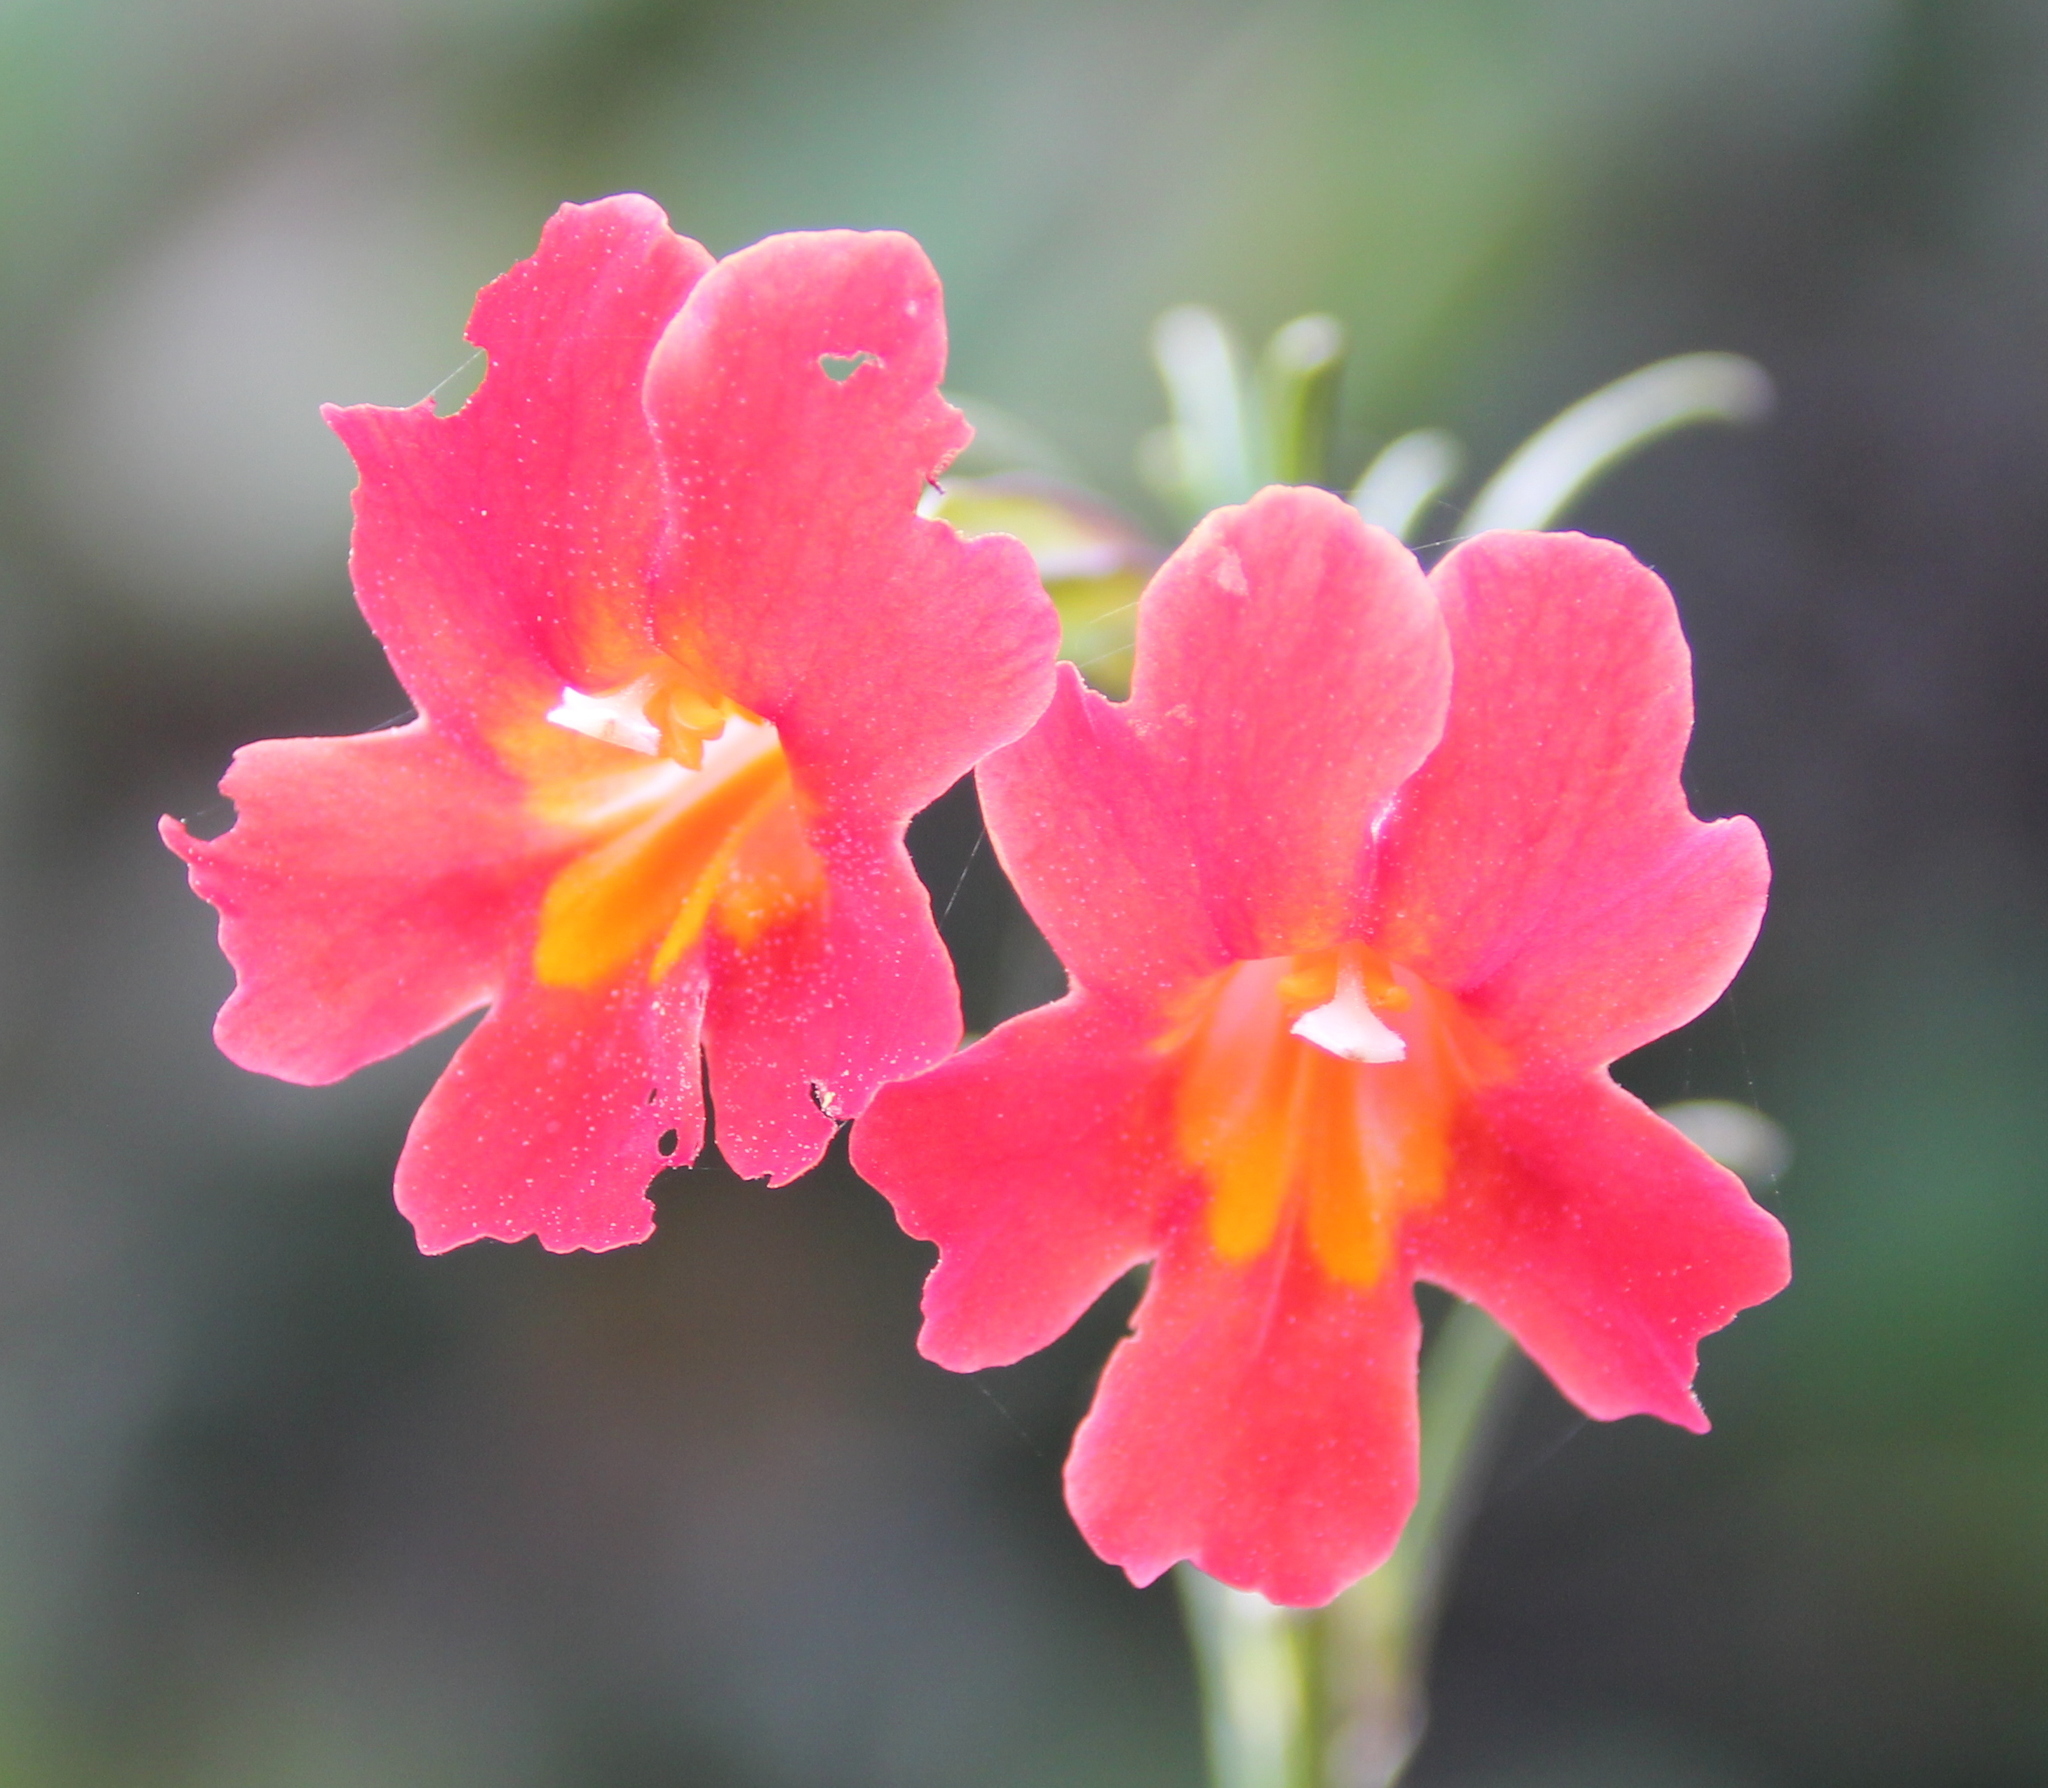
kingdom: Plantae
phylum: Tracheophyta
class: Magnoliopsida
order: Lamiales
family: Phrymaceae
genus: Diplacus
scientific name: Diplacus puniceus
